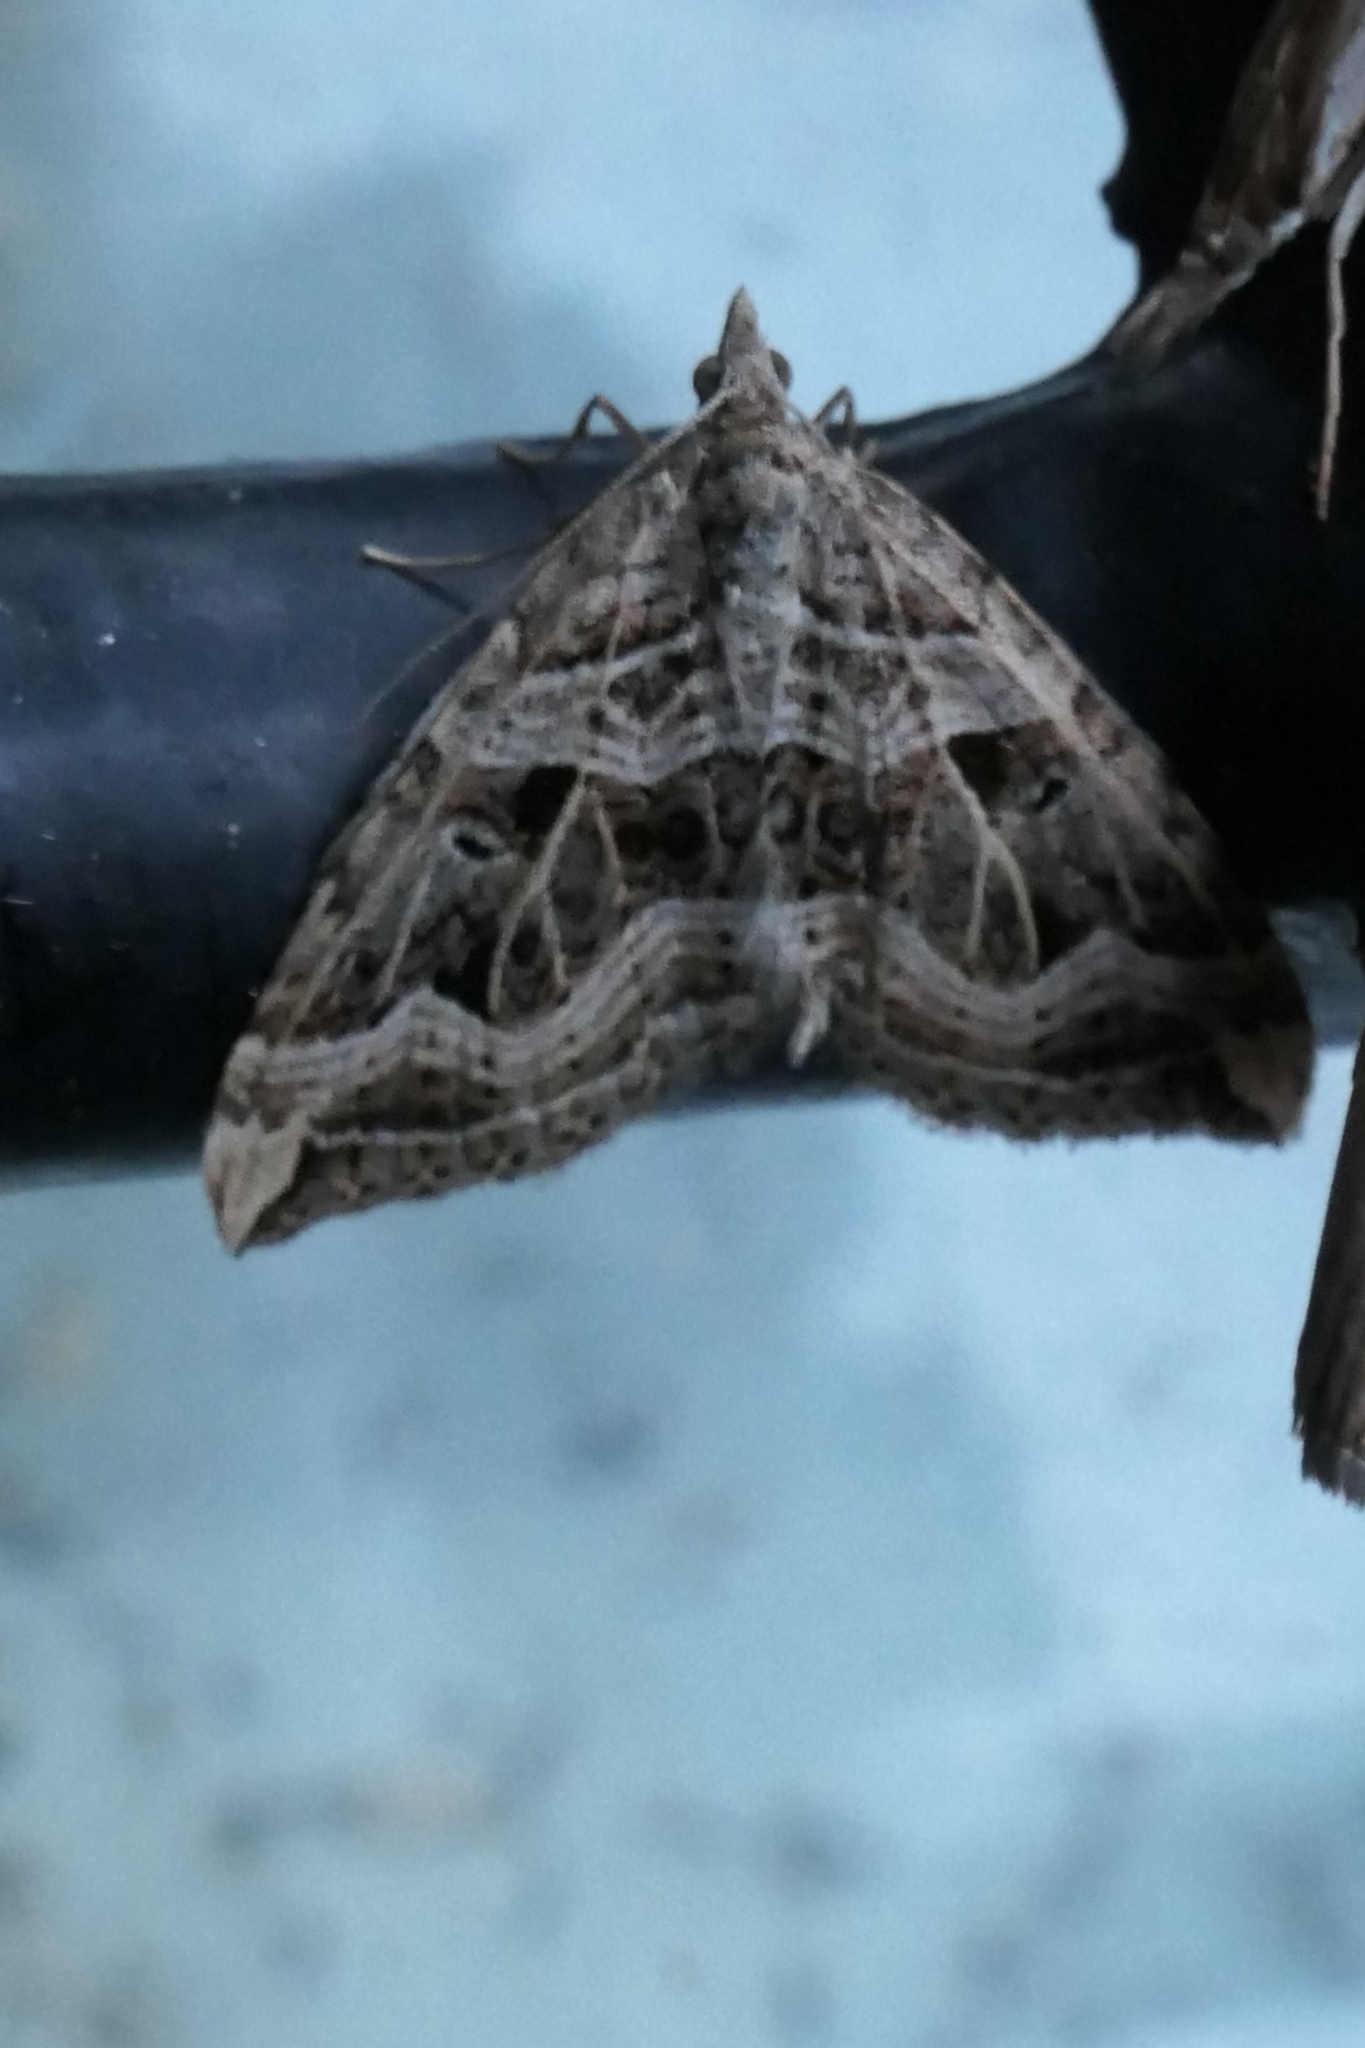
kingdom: Animalia
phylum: Arthropoda
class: Insecta
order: Lepidoptera
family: Geometridae
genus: Xanthorhoe
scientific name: Xanthorhoe semifissata
